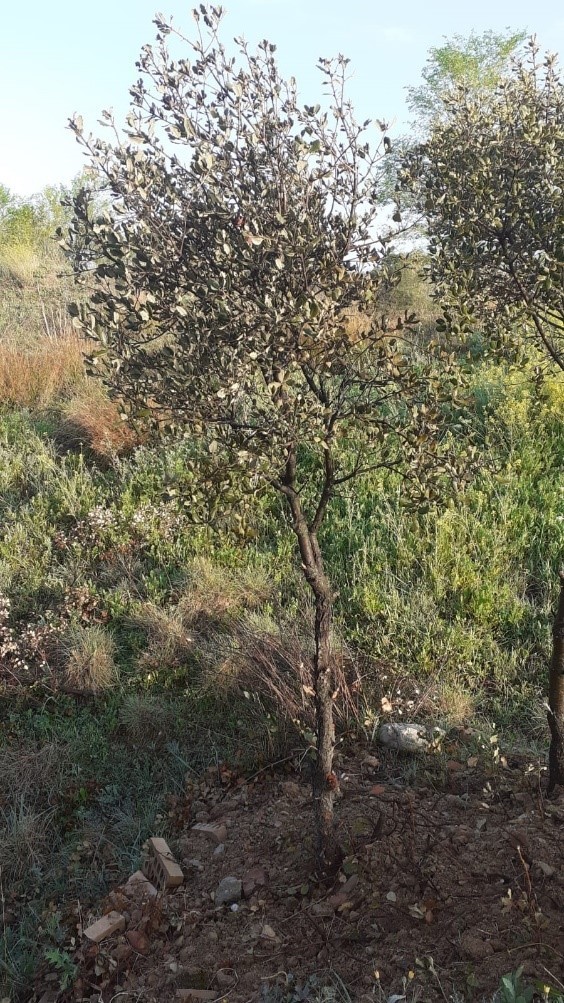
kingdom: Plantae
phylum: Tracheophyta
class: Magnoliopsida
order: Fagales
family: Fagaceae
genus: Quercus
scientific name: Quercus rotundifolia
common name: Holm oak
